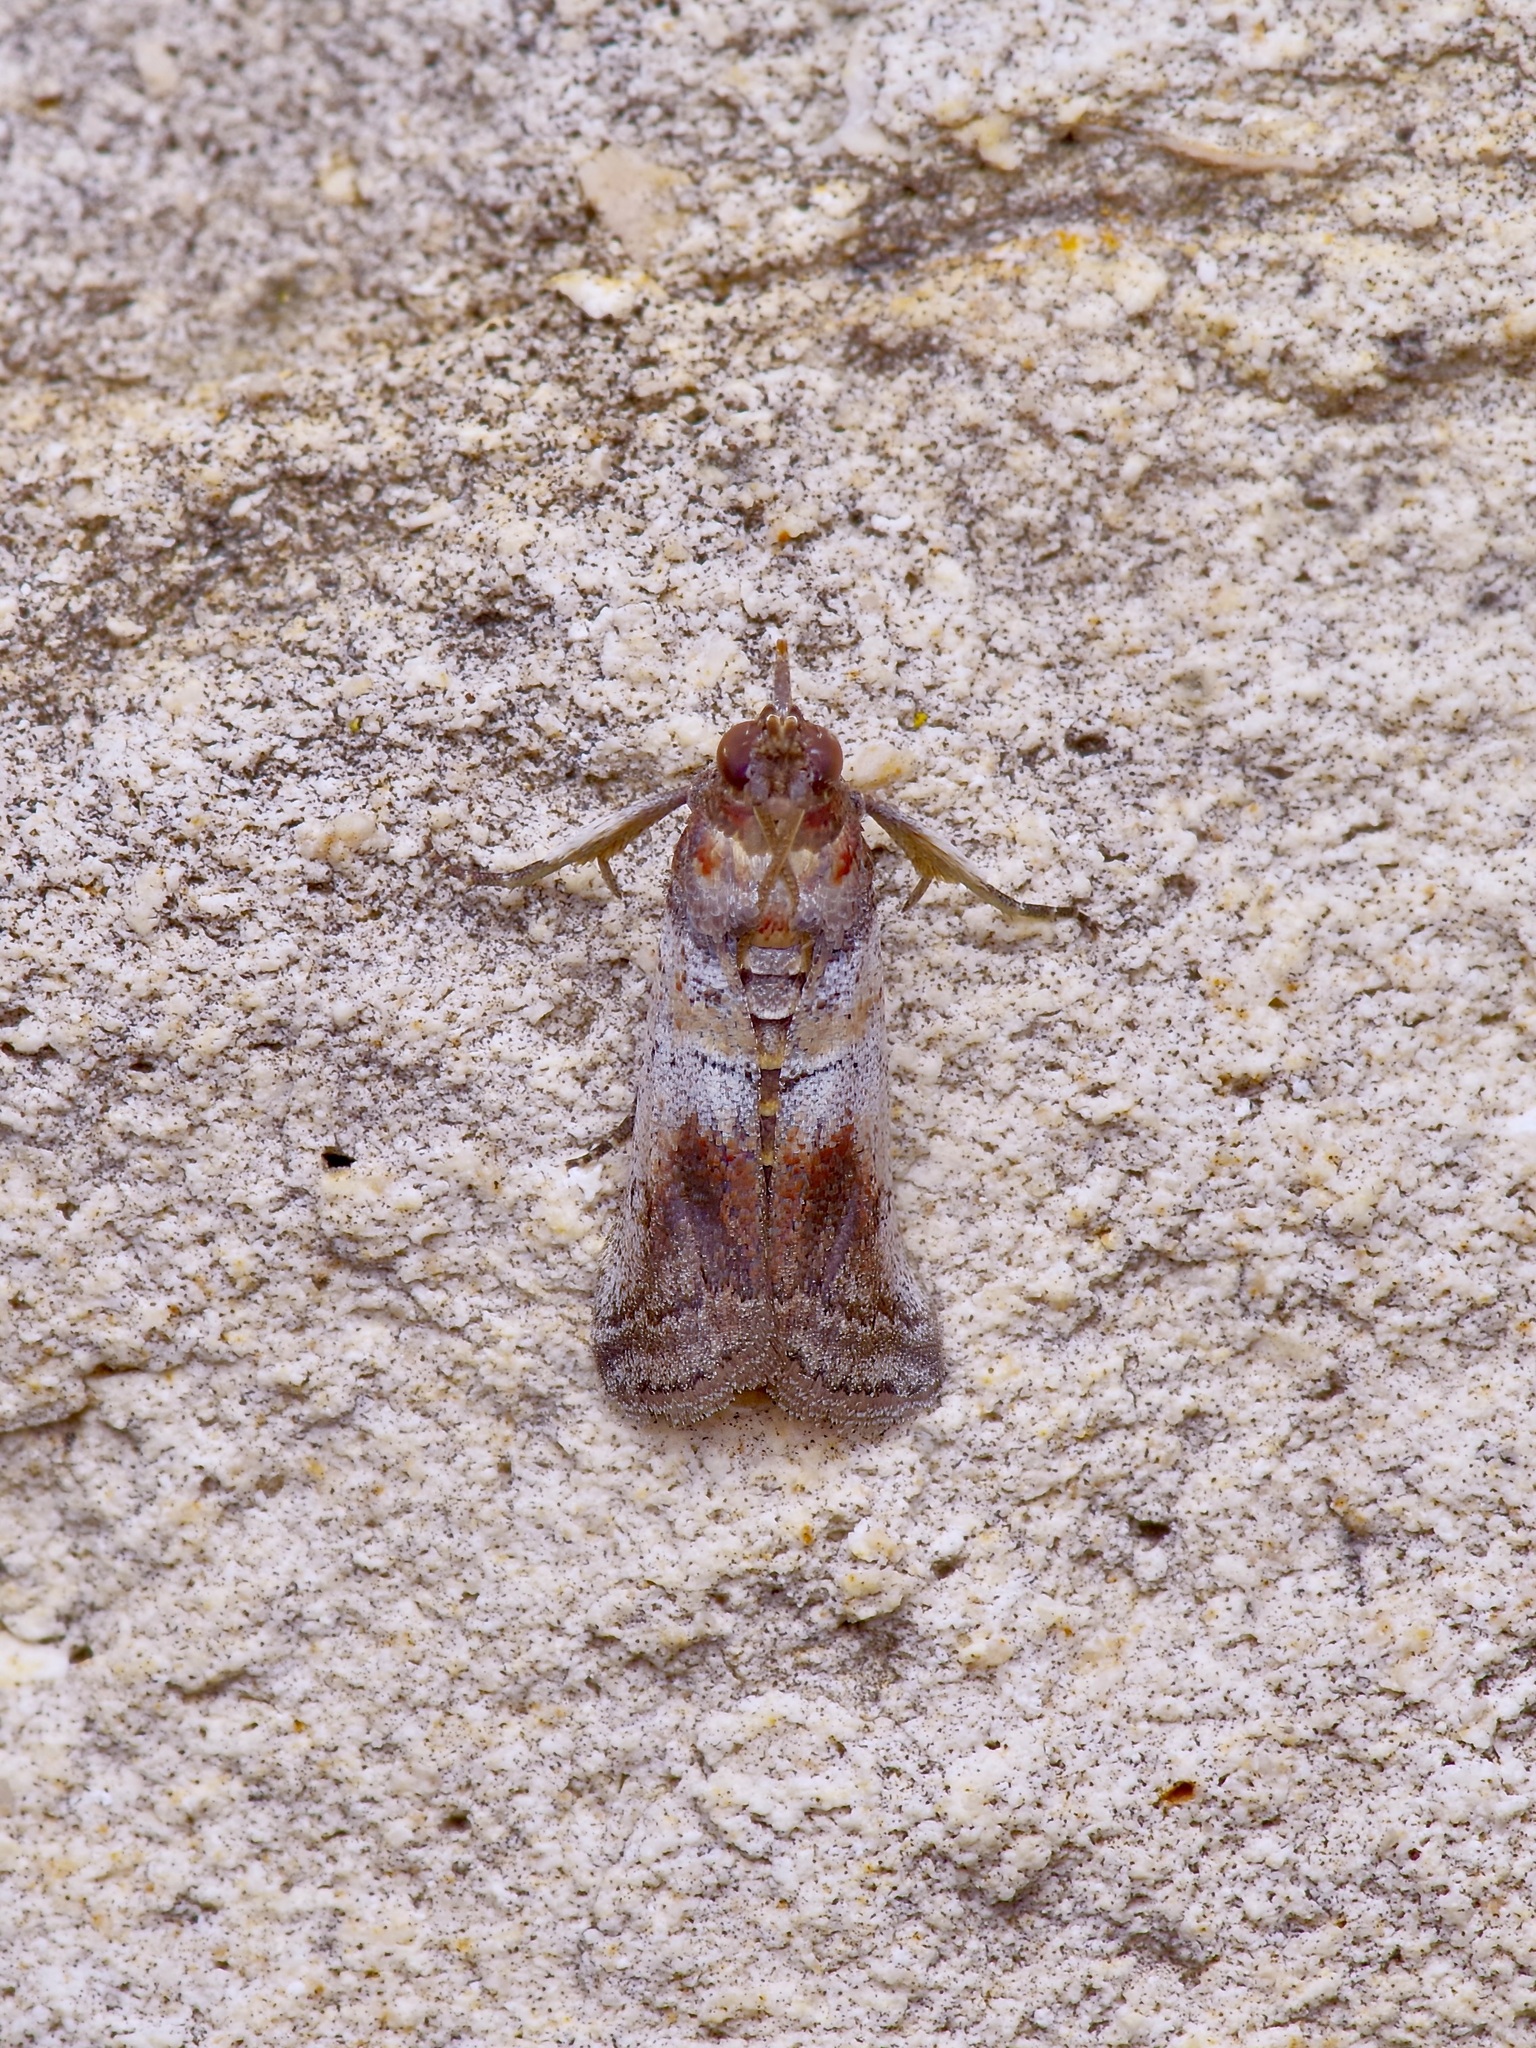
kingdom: Animalia
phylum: Arthropoda
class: Insecta
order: Lepidoptera
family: Pyralidae
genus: Chararica
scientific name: Chararica hystriculella
